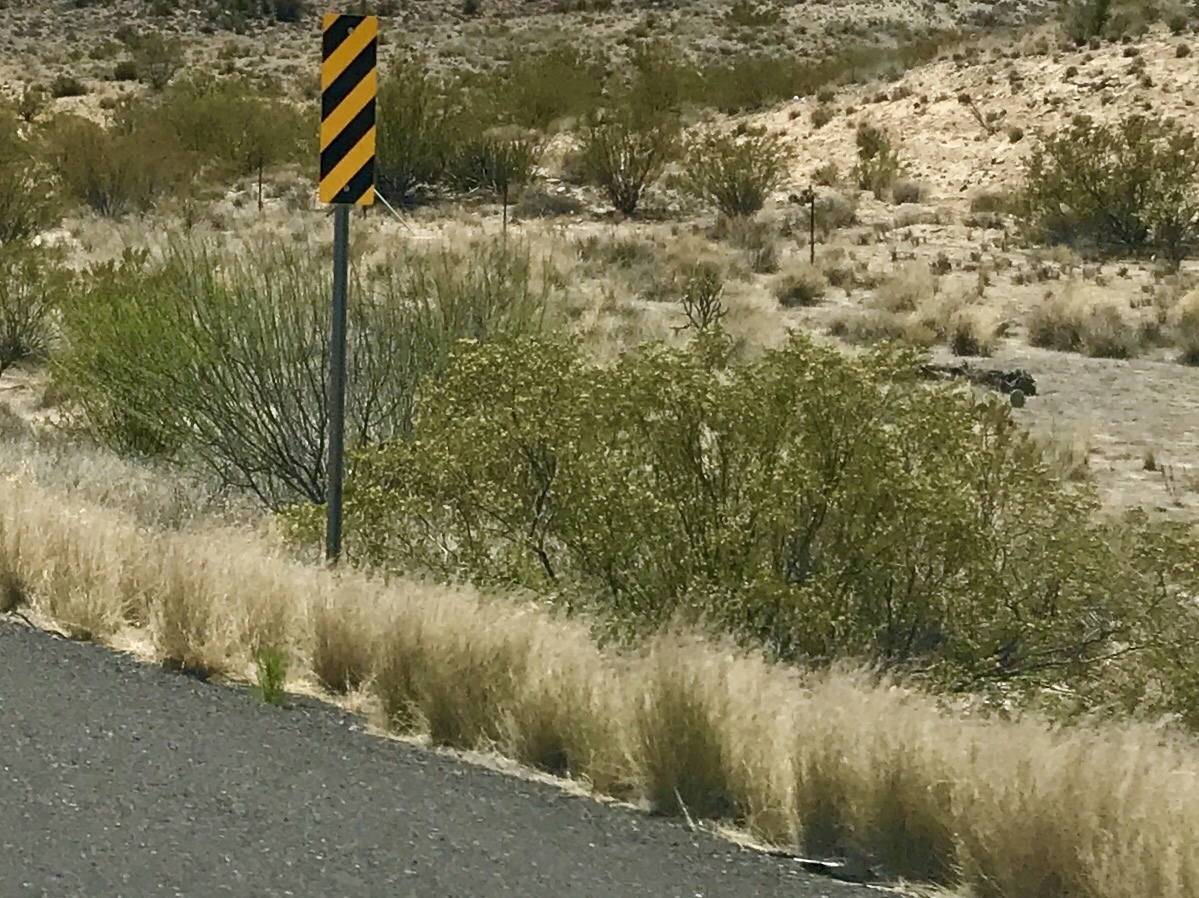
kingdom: Plantae
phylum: Tracheophyta
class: Magnoliopsida
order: Zygophyllales
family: Zygophyllaceae
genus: Larrea
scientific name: Larrea tridentata
